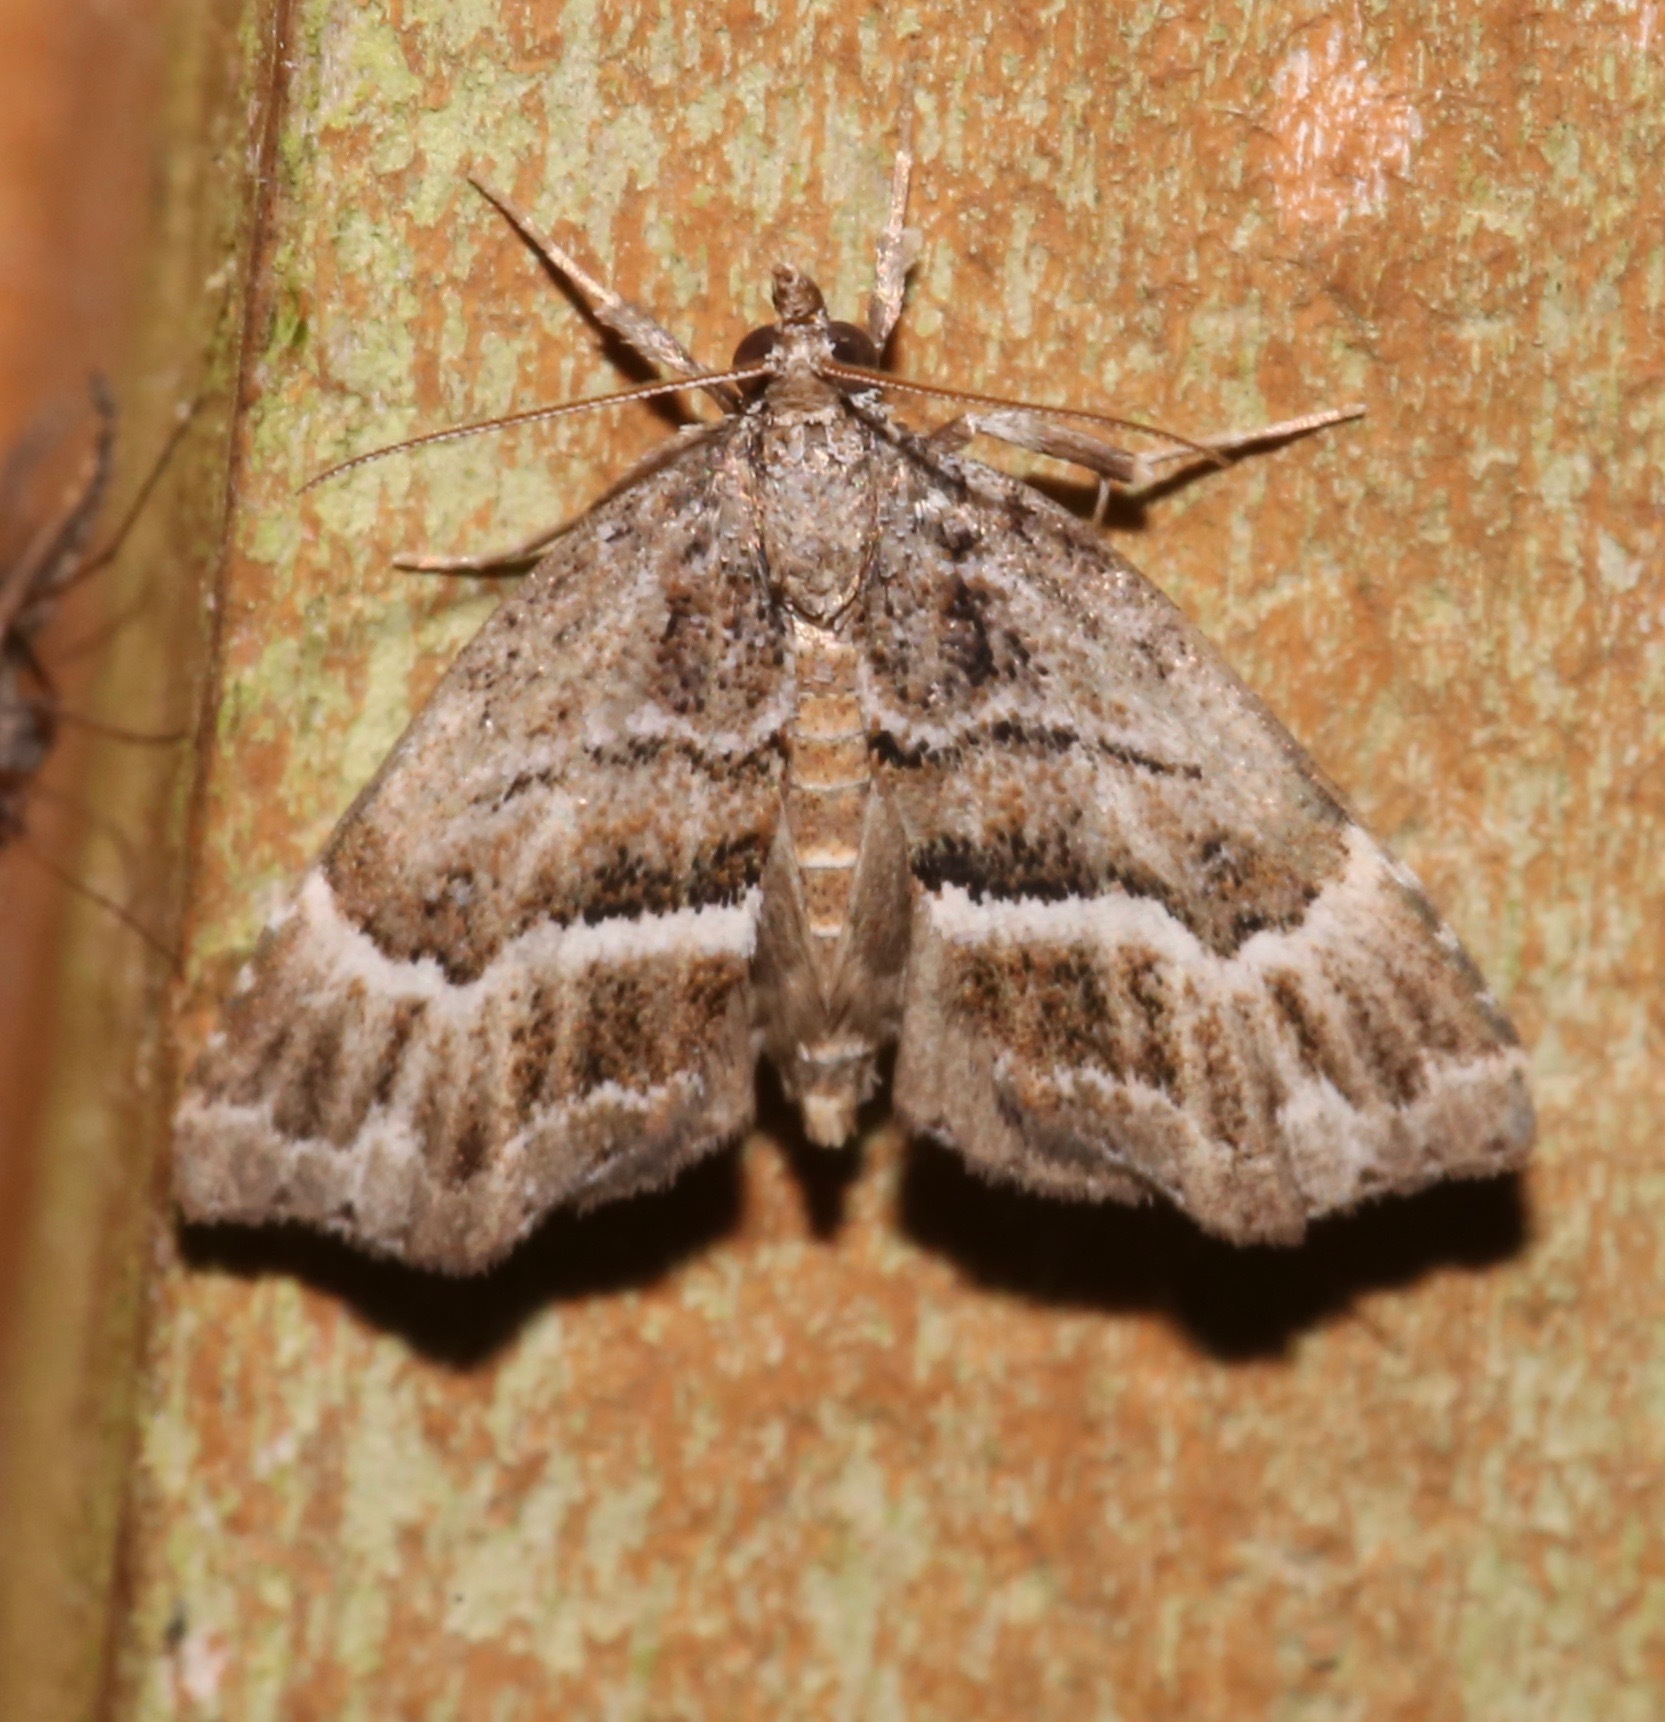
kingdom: Animalia
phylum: Arthropoda
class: Insecta
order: Lepidoptera
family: Erebidae
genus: Cutina
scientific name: Cutina arcuata
